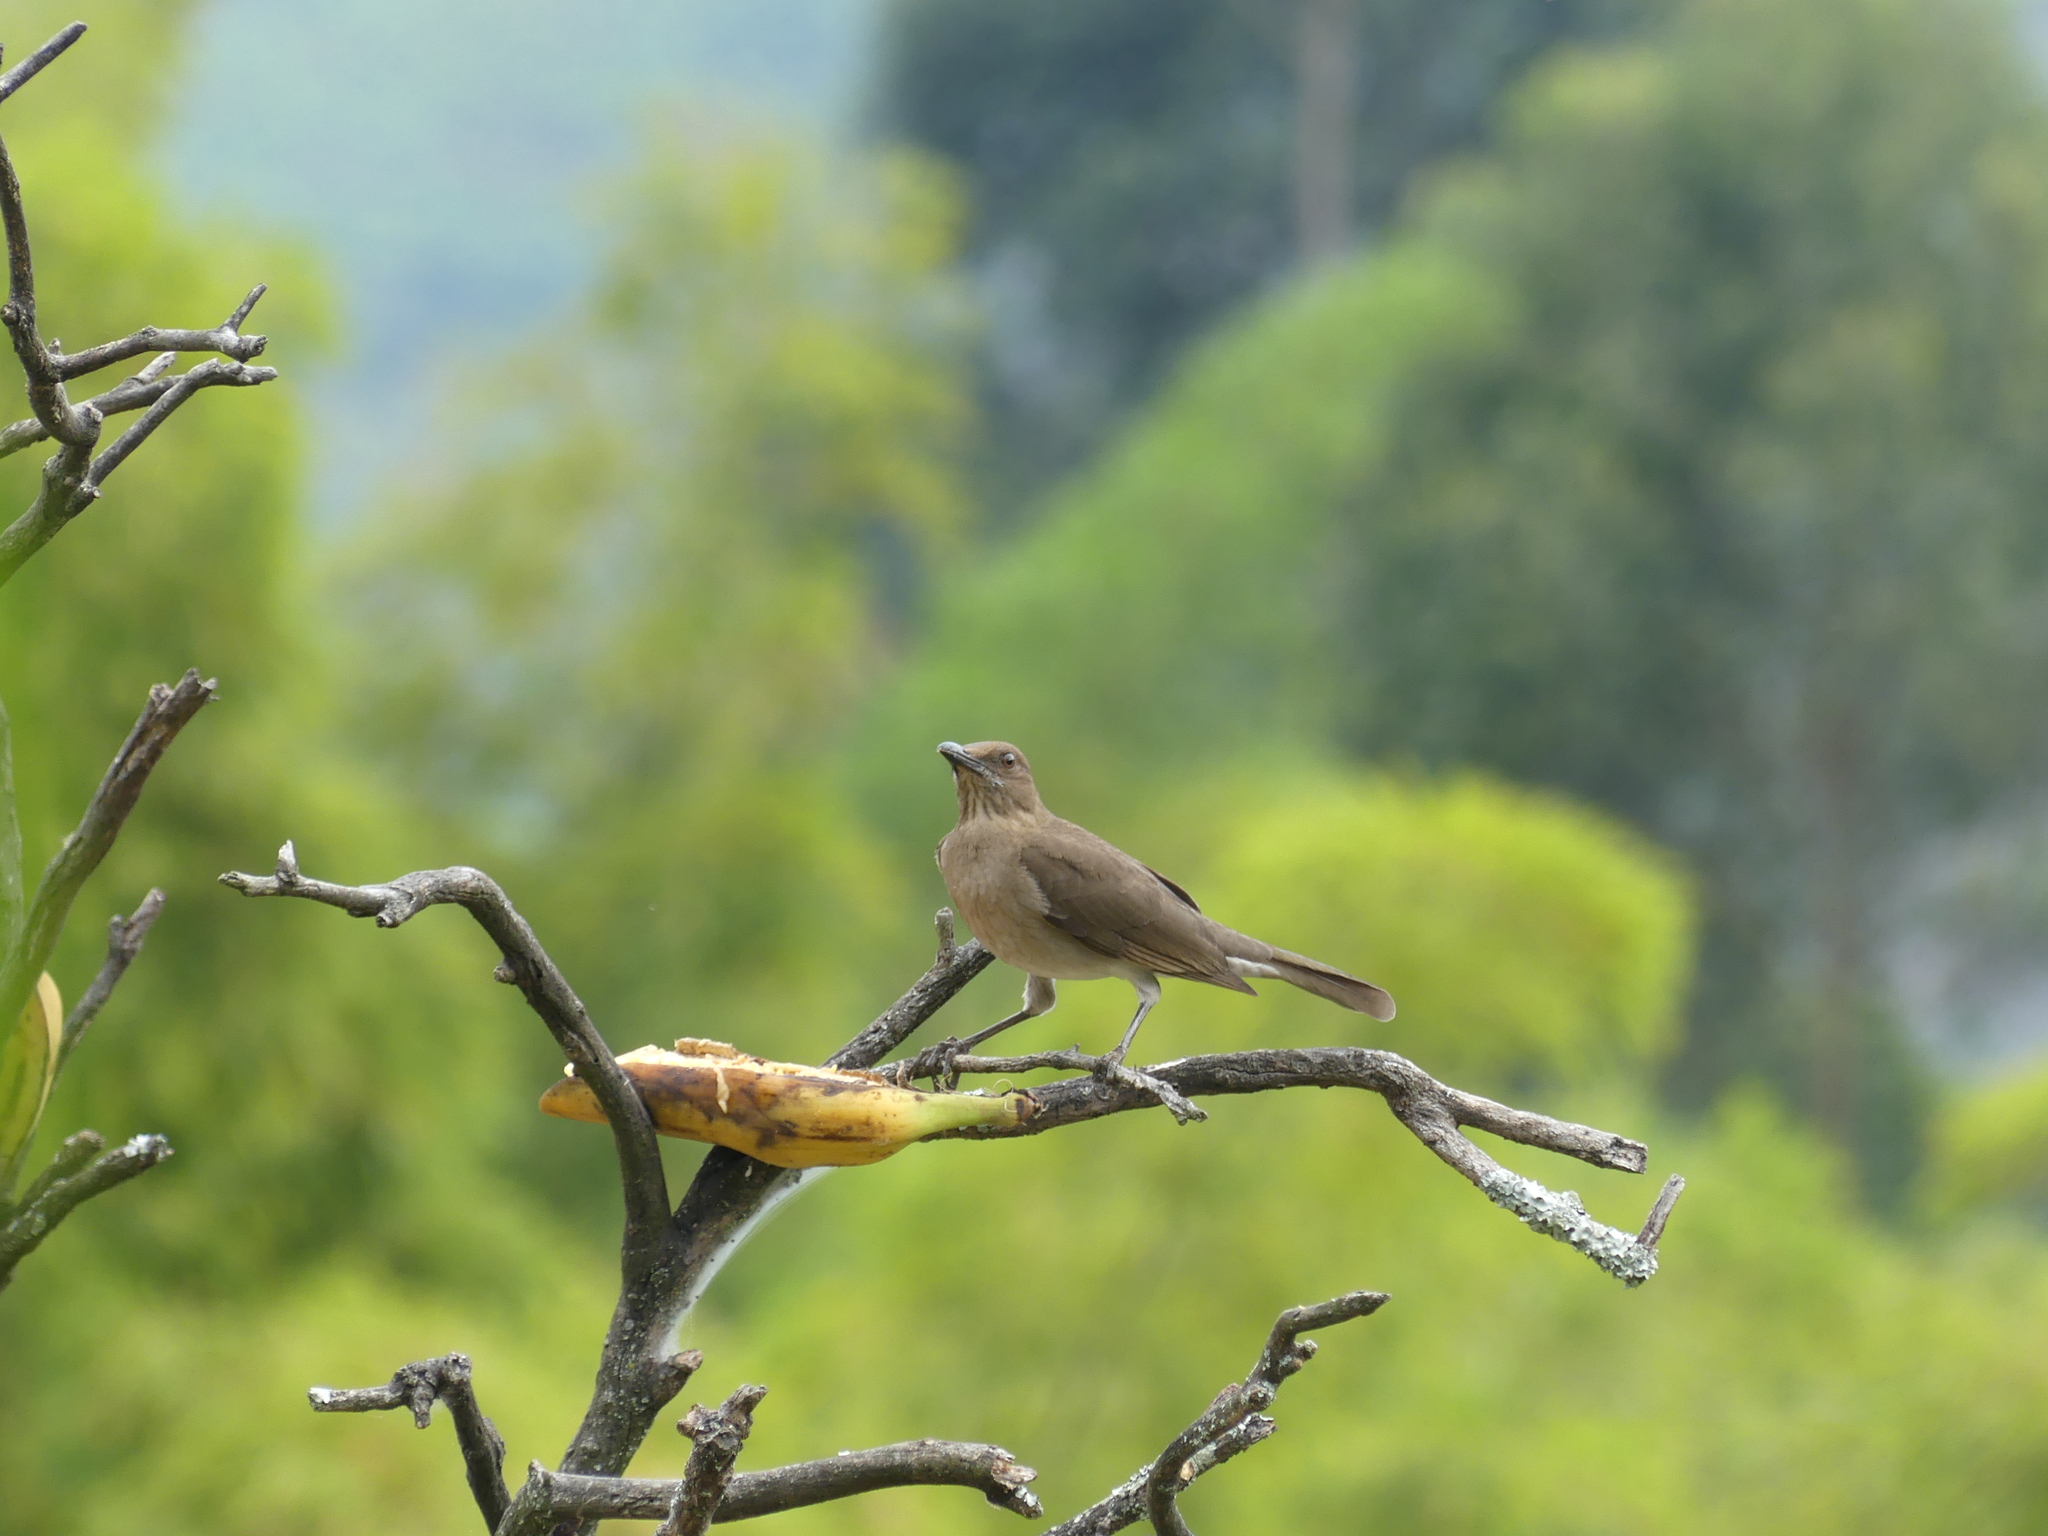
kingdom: Animalia
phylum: Chordata
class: Aves
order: Passeriformes
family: Turdidae
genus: Turdus
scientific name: Turdus ignobilis
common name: Black-billed thrush
